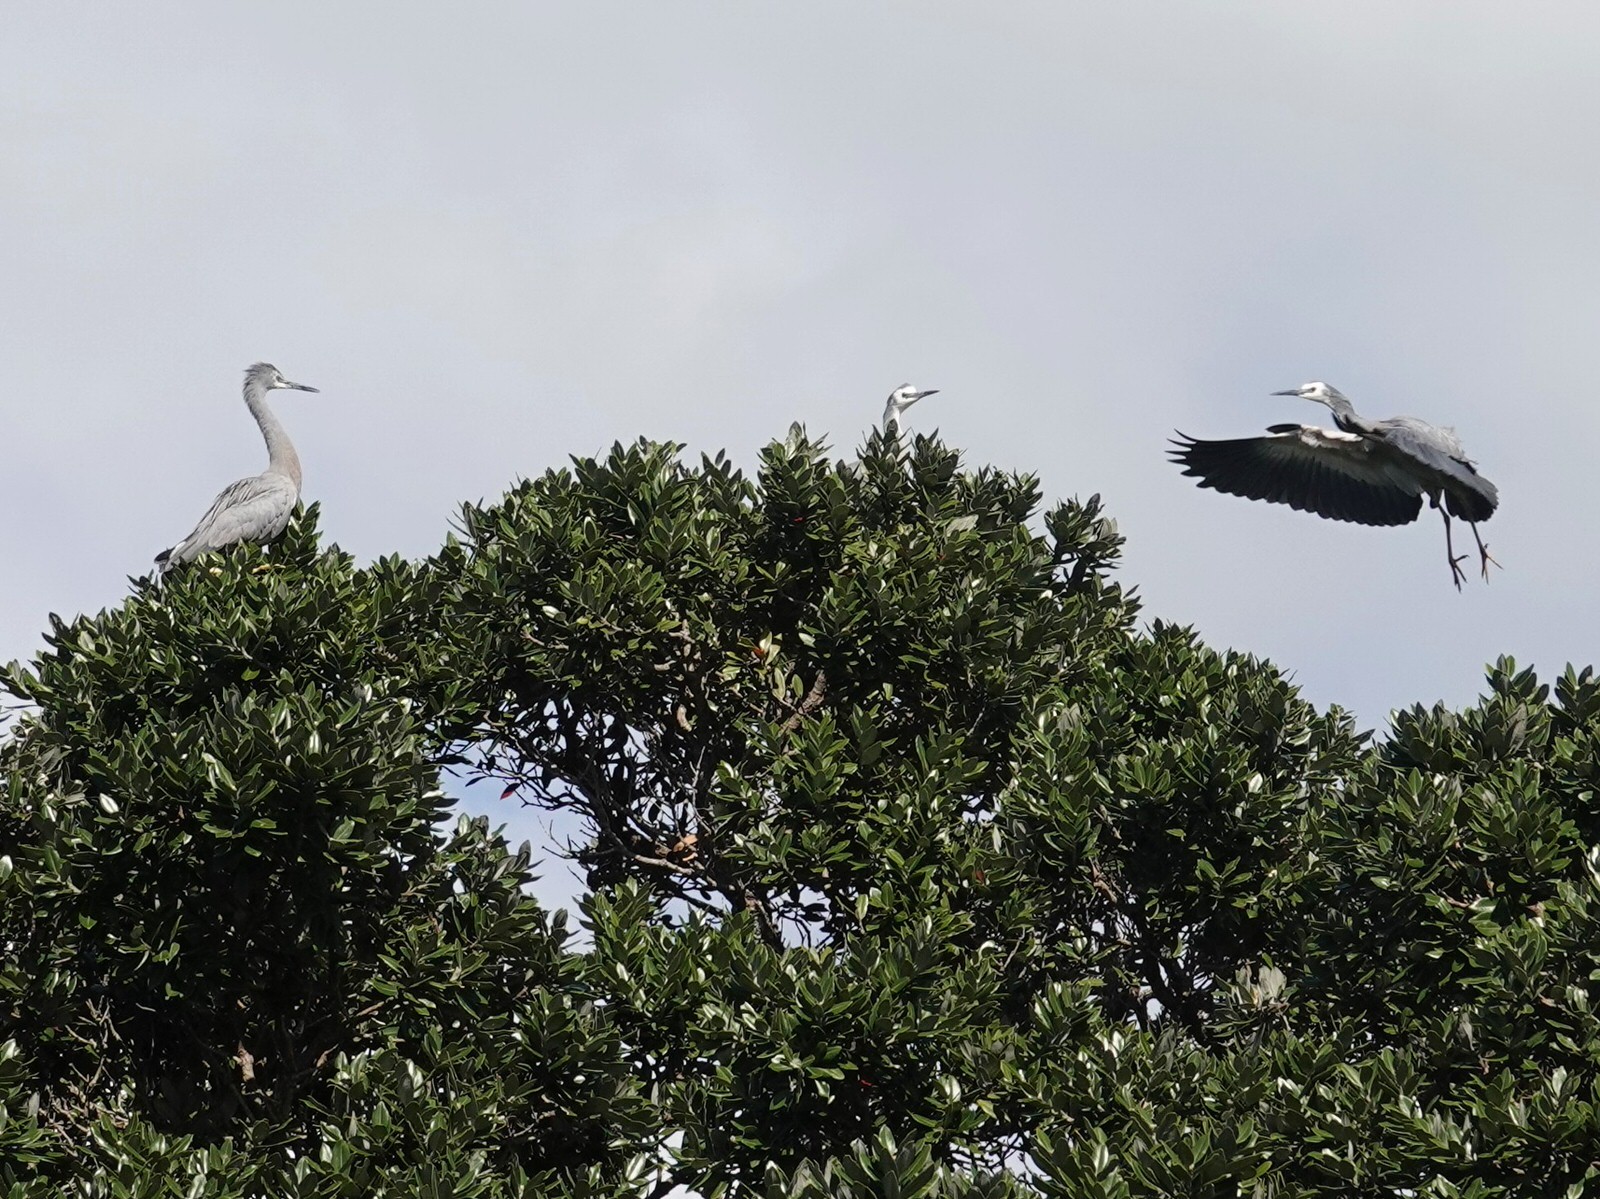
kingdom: Animalia
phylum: Chordata
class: Aves
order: Pelecaniformes
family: Ardeidae
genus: Egretta
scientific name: Egretta novaehollandiae
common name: White-faced heron
